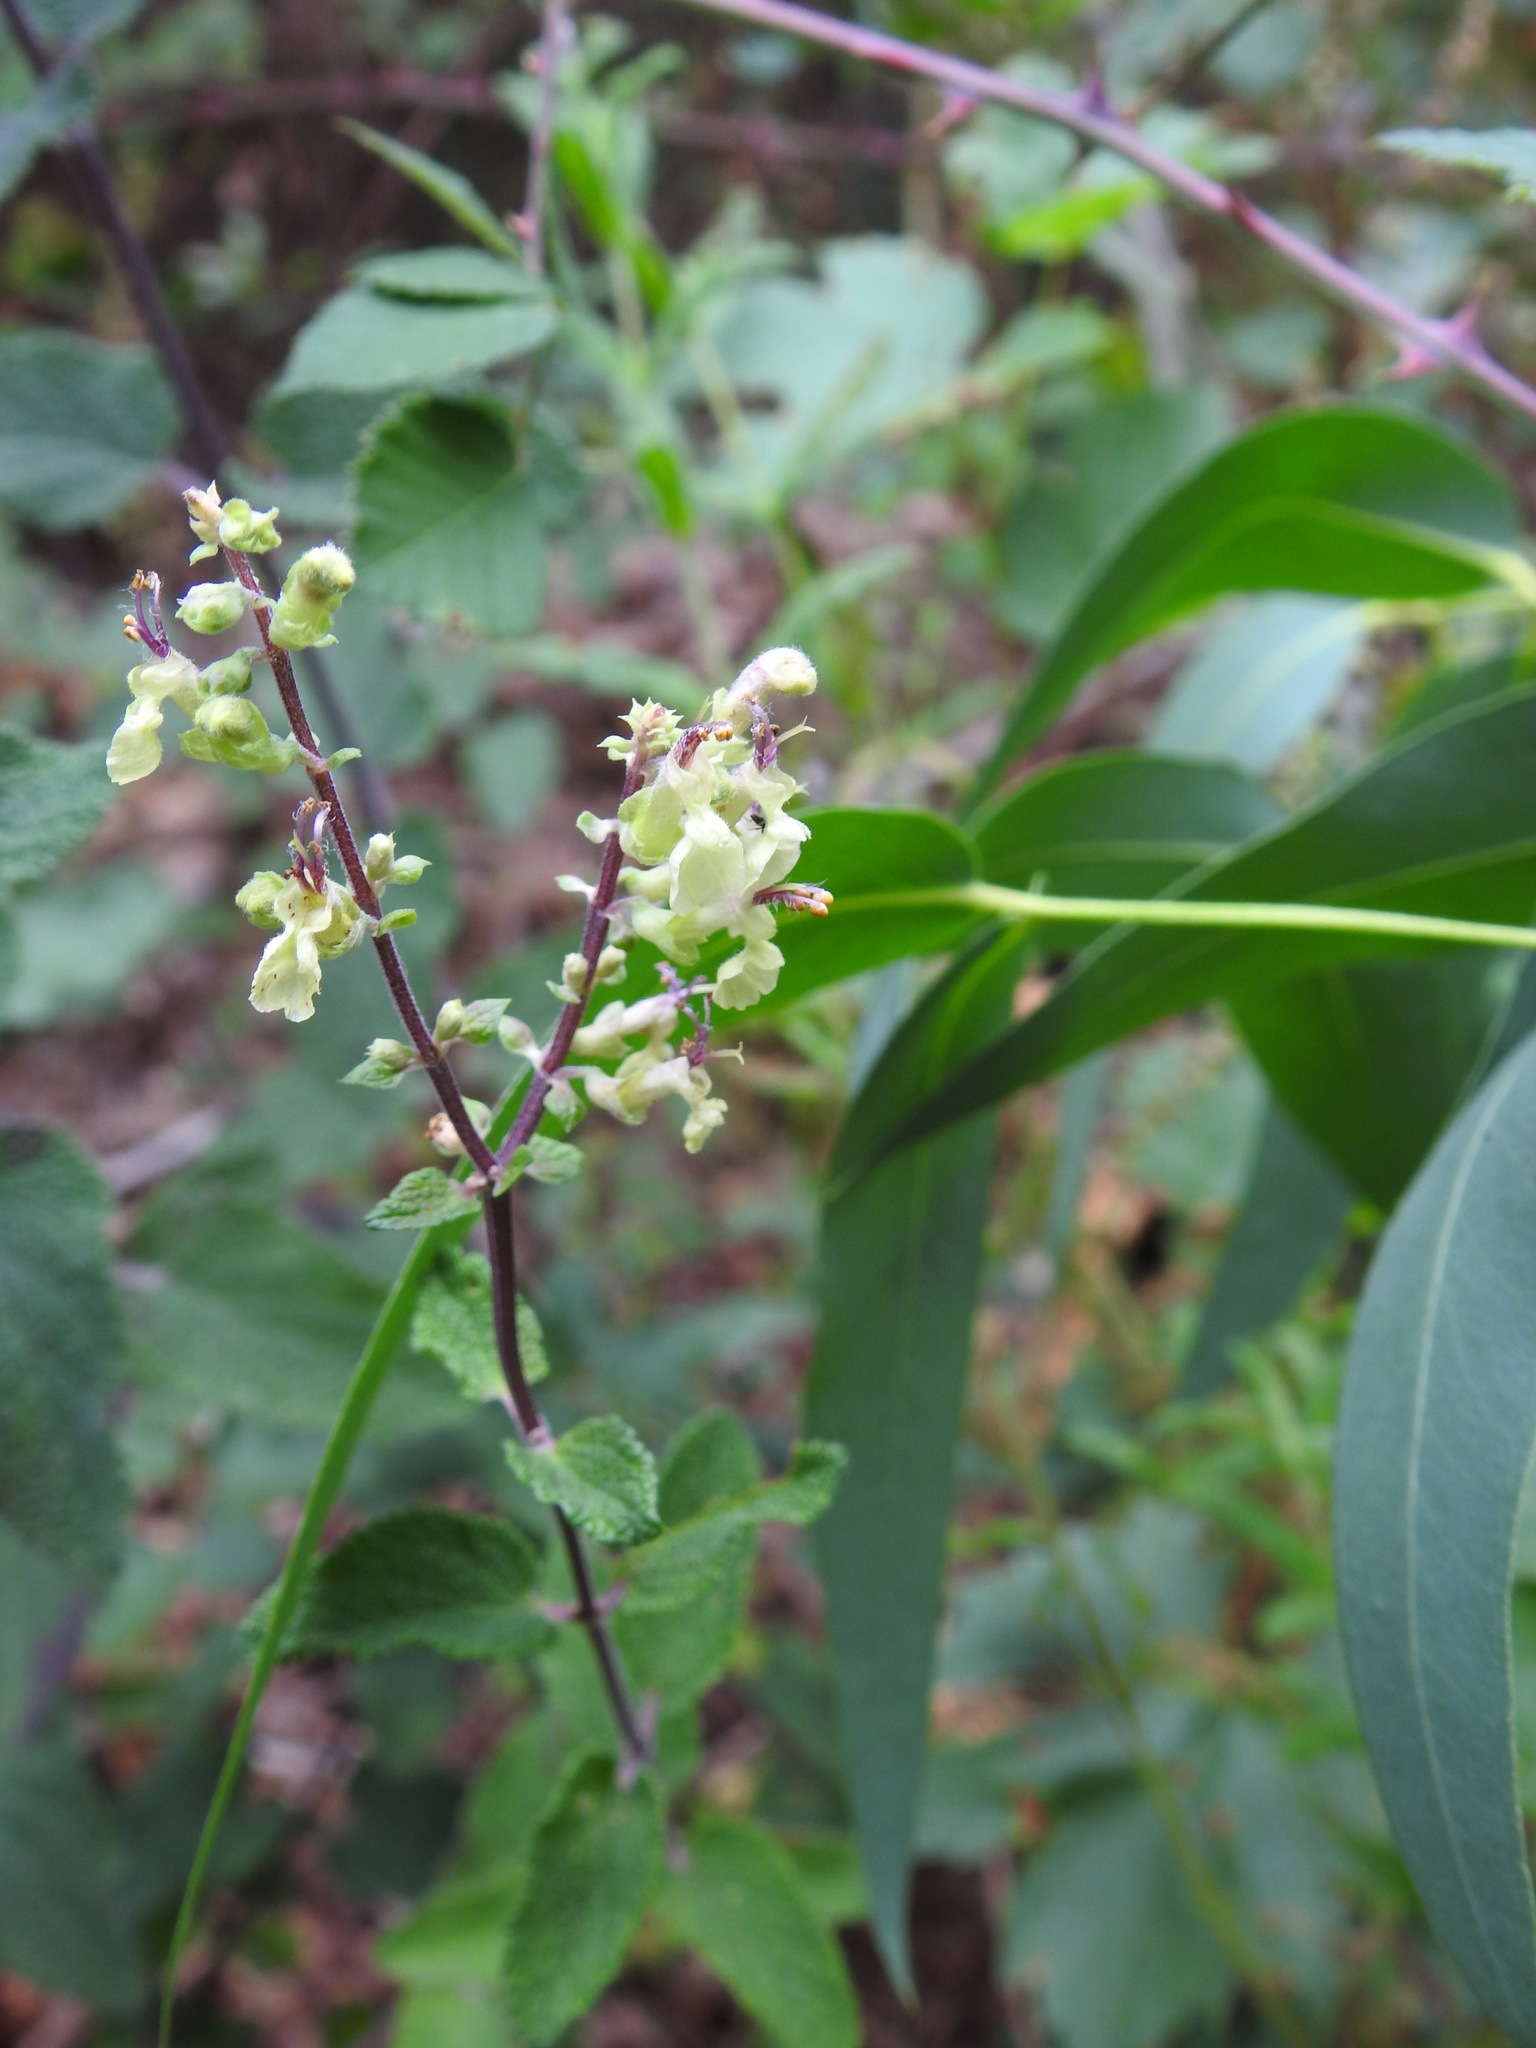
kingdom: Plantae
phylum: Tracheophyta
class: Magnoliopsida
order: Lamiales
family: Lamiaceae
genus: Teucrium
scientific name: Teucrium scorodonia
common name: Woodland germander
